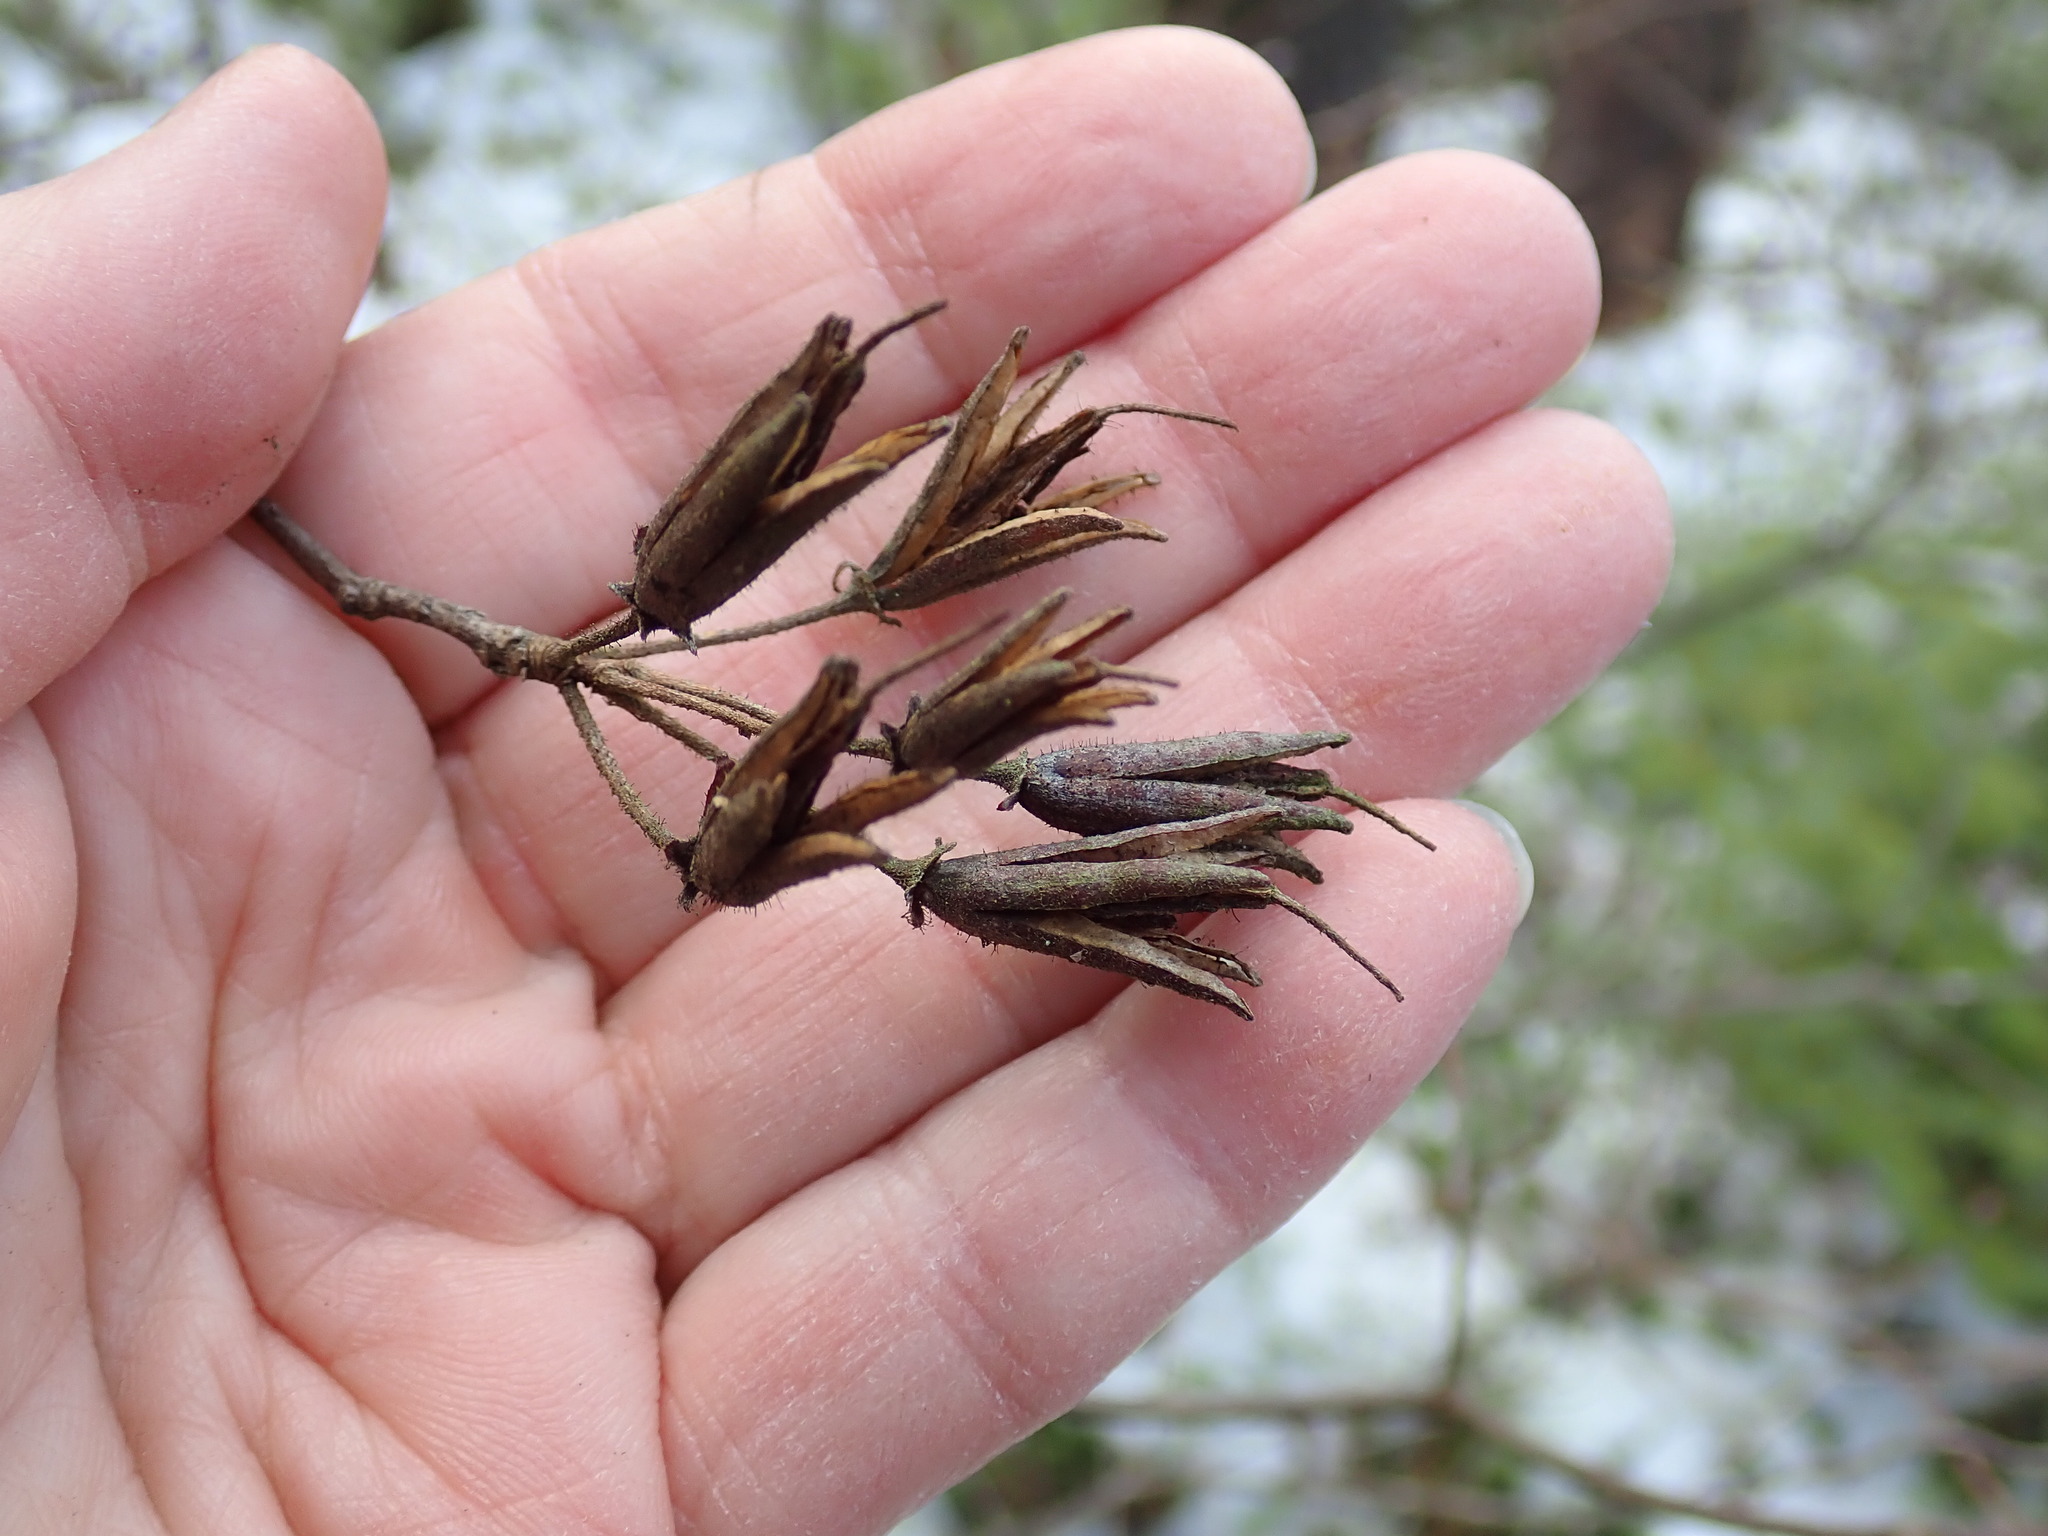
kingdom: Plantae
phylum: Tracheophyta
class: Magnoliopsida
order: Ericales
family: Ericaceae
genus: Rhododendron
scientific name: Rhododendron viscosum
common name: Clammy azalea
